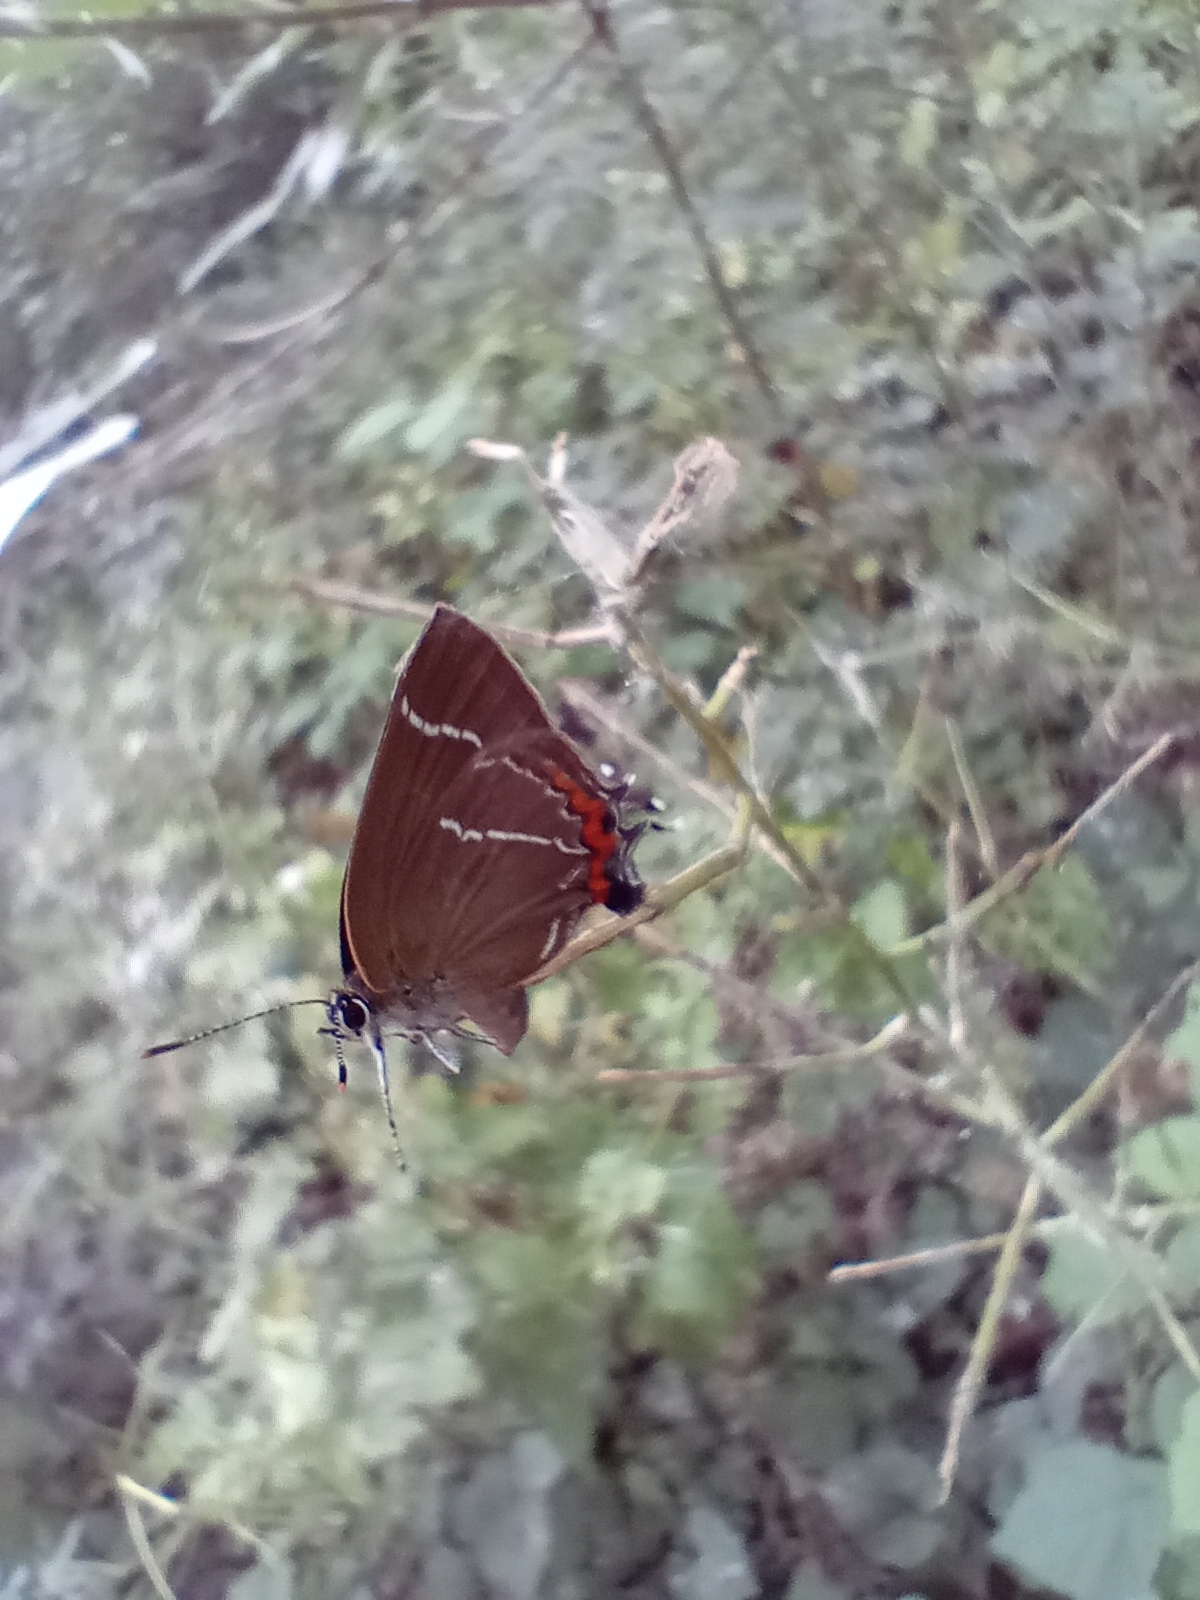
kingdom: Animalia
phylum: Arthropoda
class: Insecta
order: Lepidoptera
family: Lycaenidae
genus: Satyrium
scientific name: Satyrium w-album
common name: White-letter hairstreak
